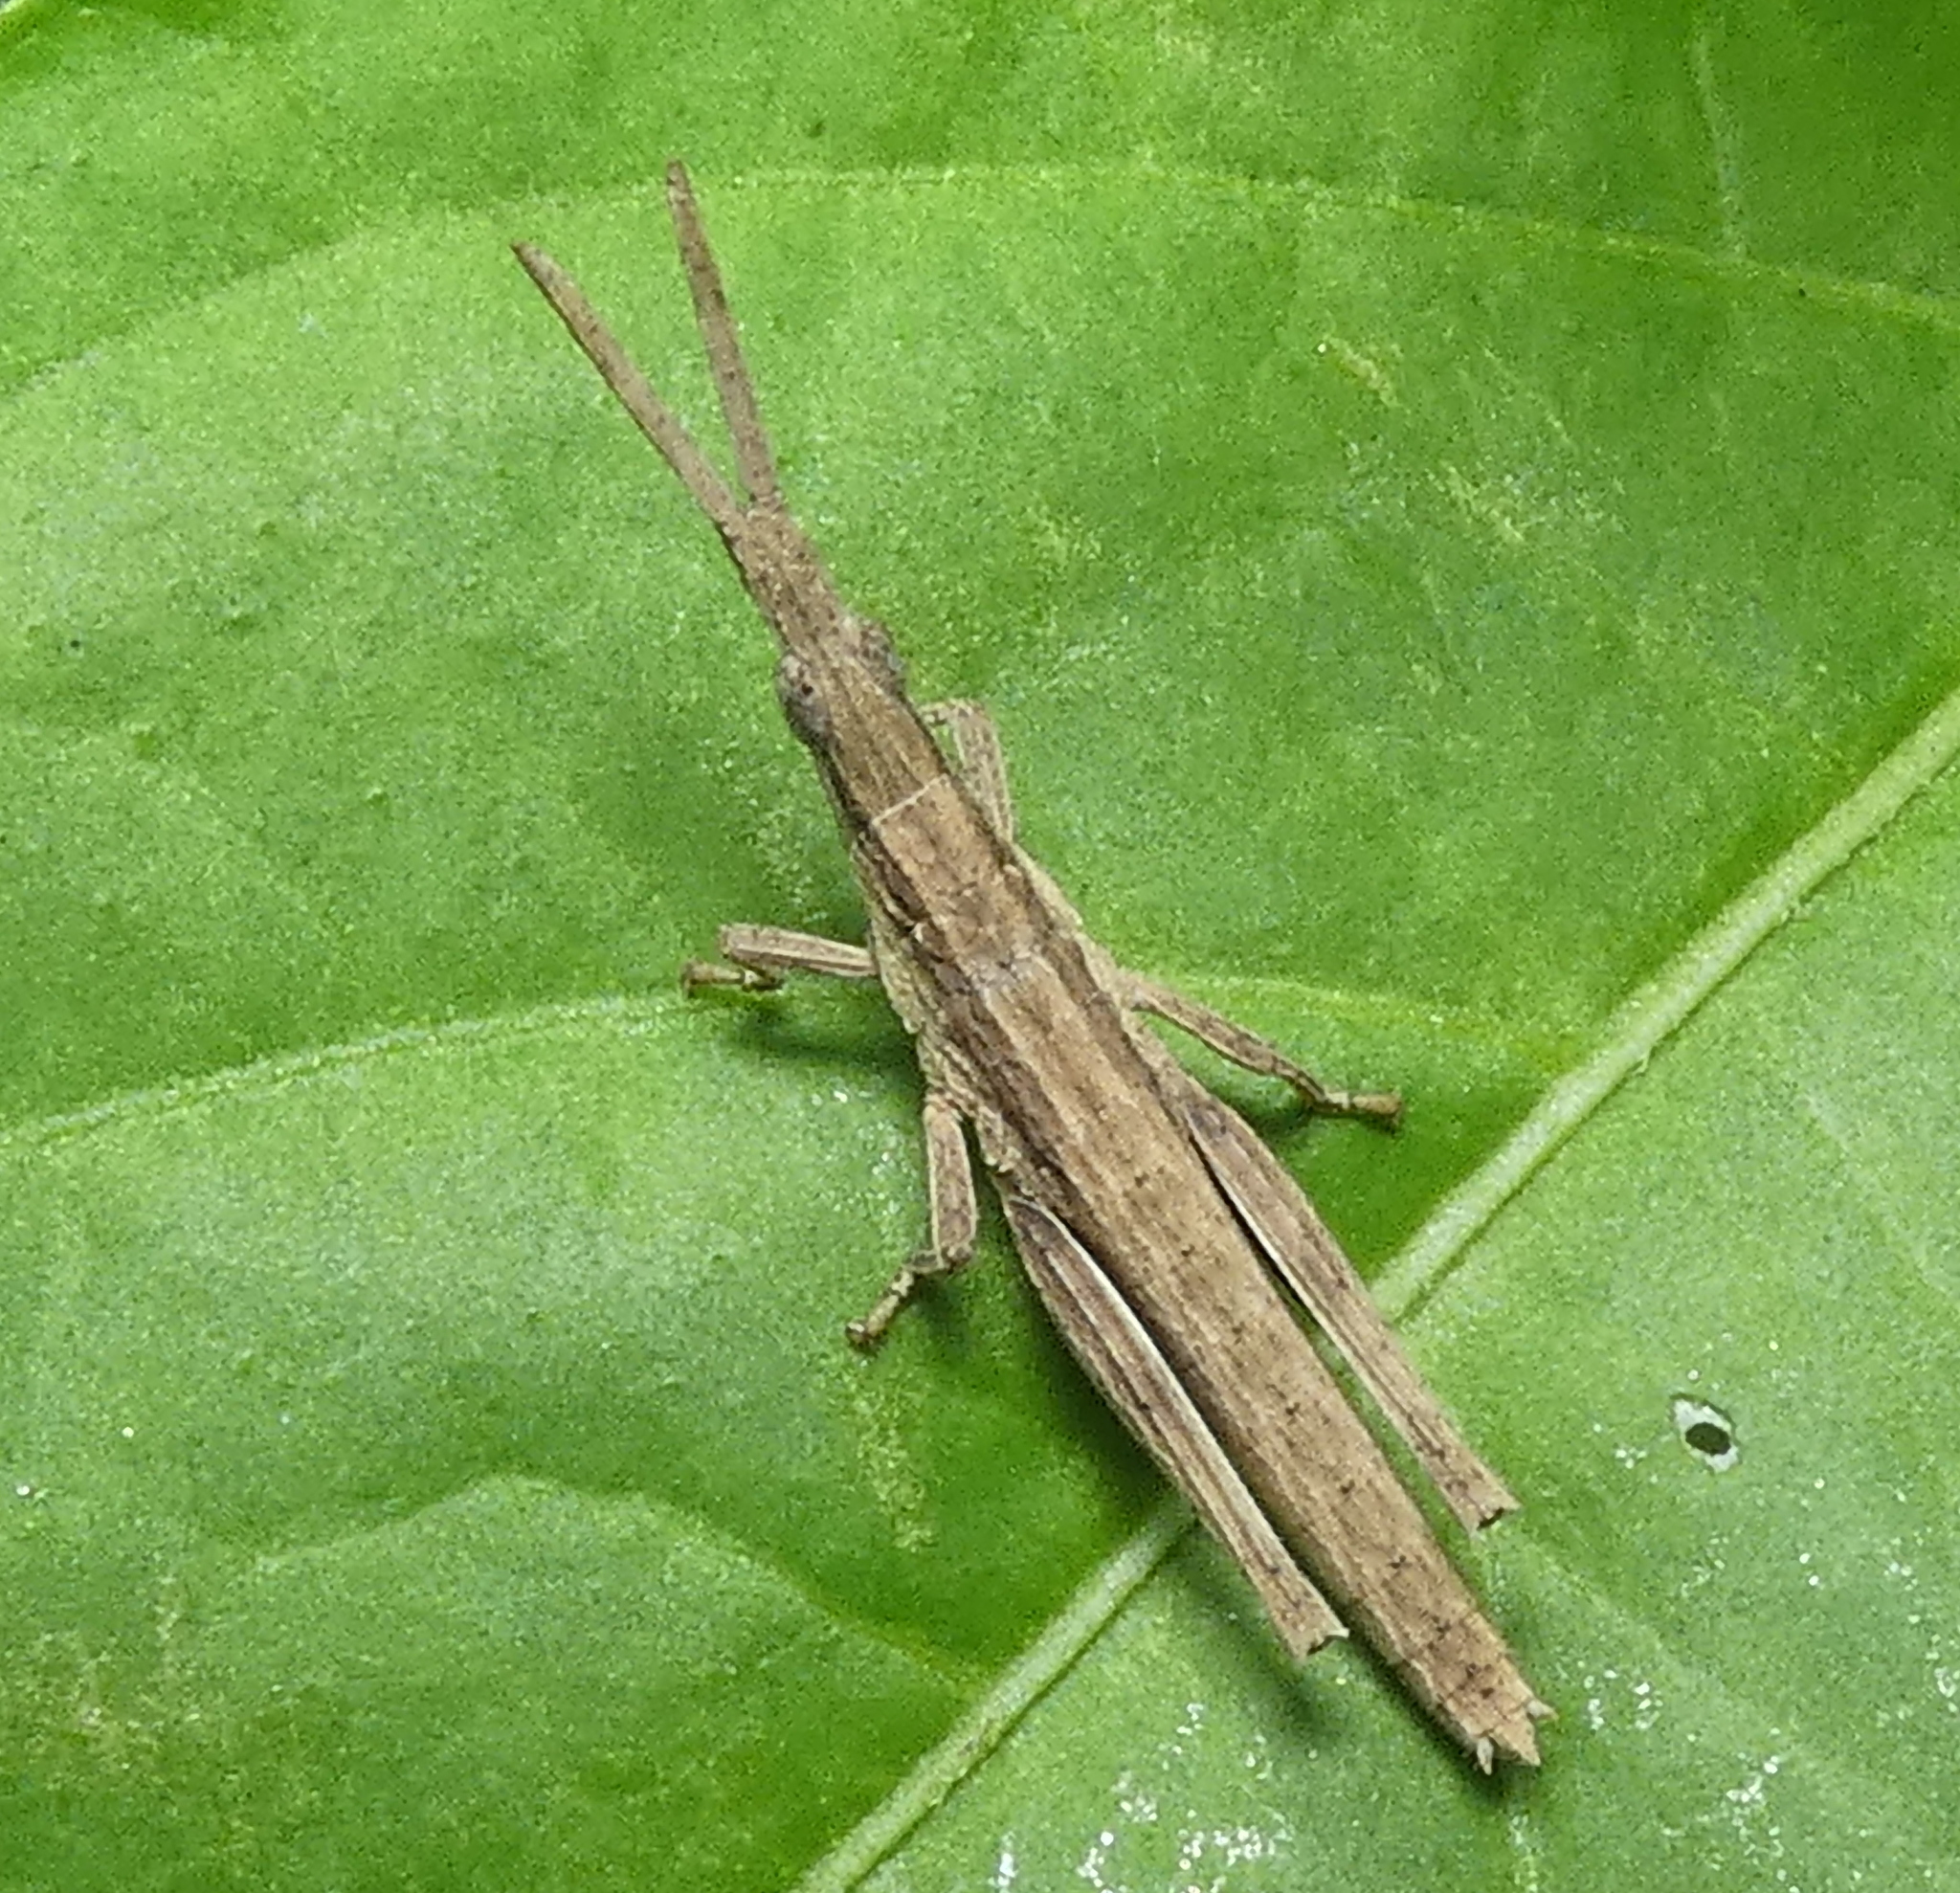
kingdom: Animalia
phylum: Arthropoda
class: Insecta
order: Orthoptera
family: Pyrgomorphidae
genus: Algete
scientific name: Algete brunneri
